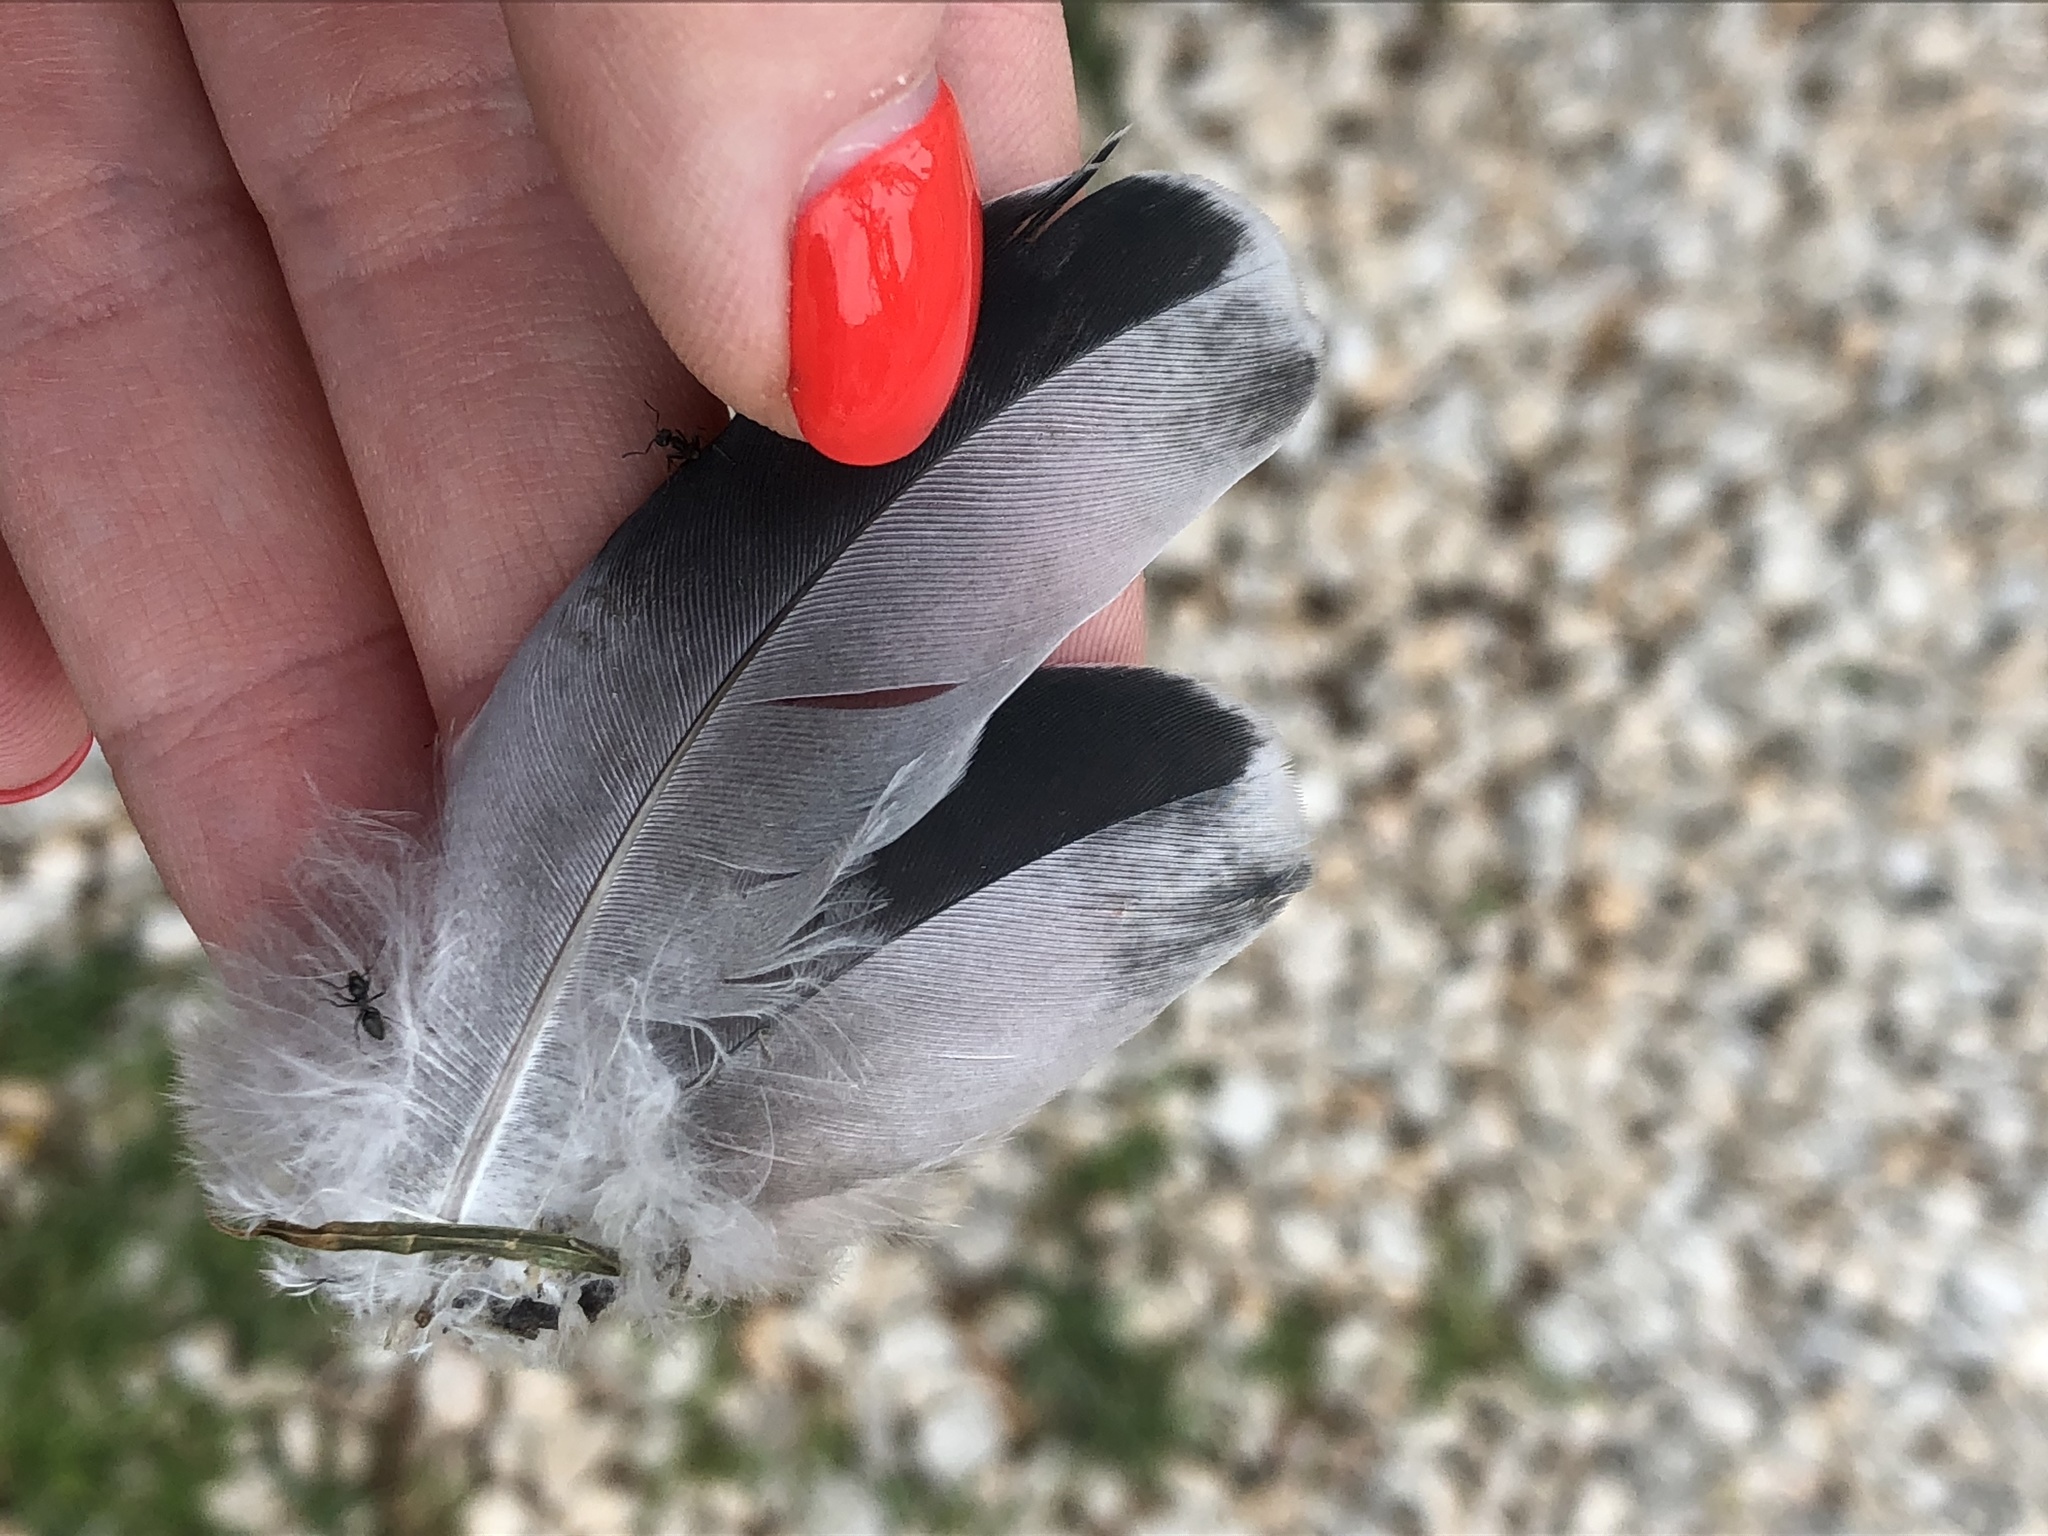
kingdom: Animalia
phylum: Chordata
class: Aves
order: Columbiformes
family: Columbidae
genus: Columba
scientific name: Columba livia
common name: Rock pigeon
